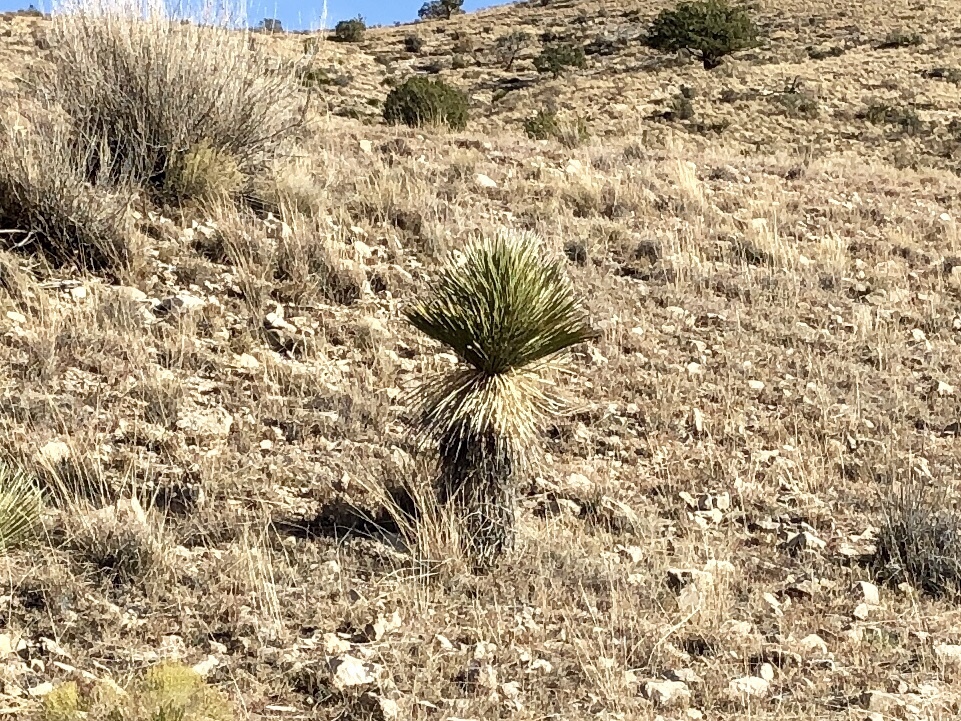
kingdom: Plantae
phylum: Tracheophyta
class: Liliopsida
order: Asparagales
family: Asparagaceae
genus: Yucca
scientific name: Yucca elata
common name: Palmella
